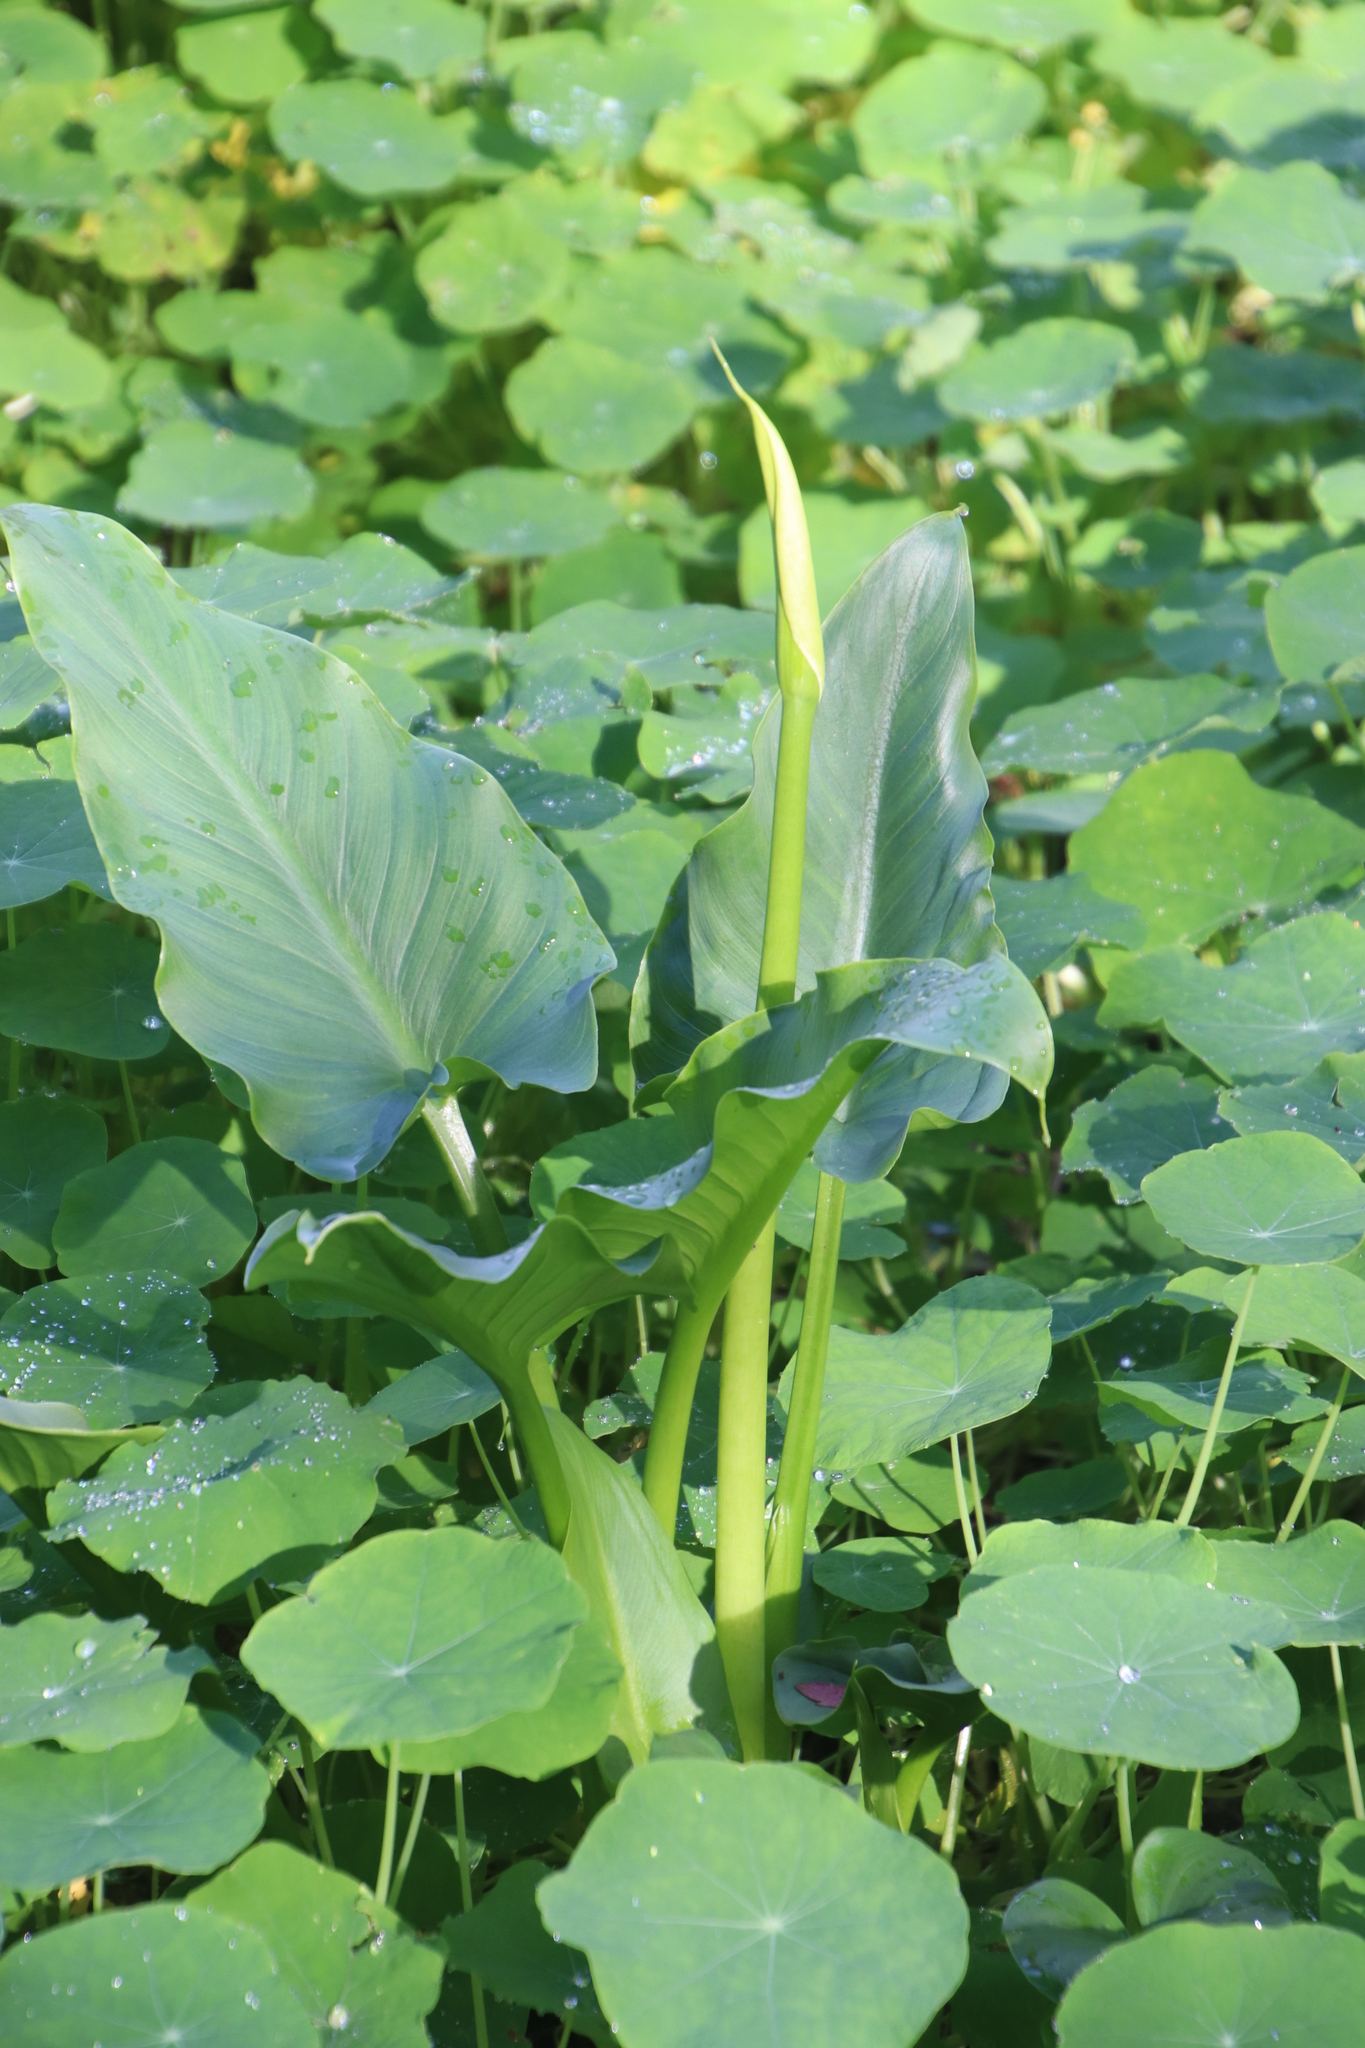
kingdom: Plantae
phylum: Tracheophyta
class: Liliopsida
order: Alismatales
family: Araceae
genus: Zantedeschia
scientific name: Zantedeschia aethiopica
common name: Altar-lily
